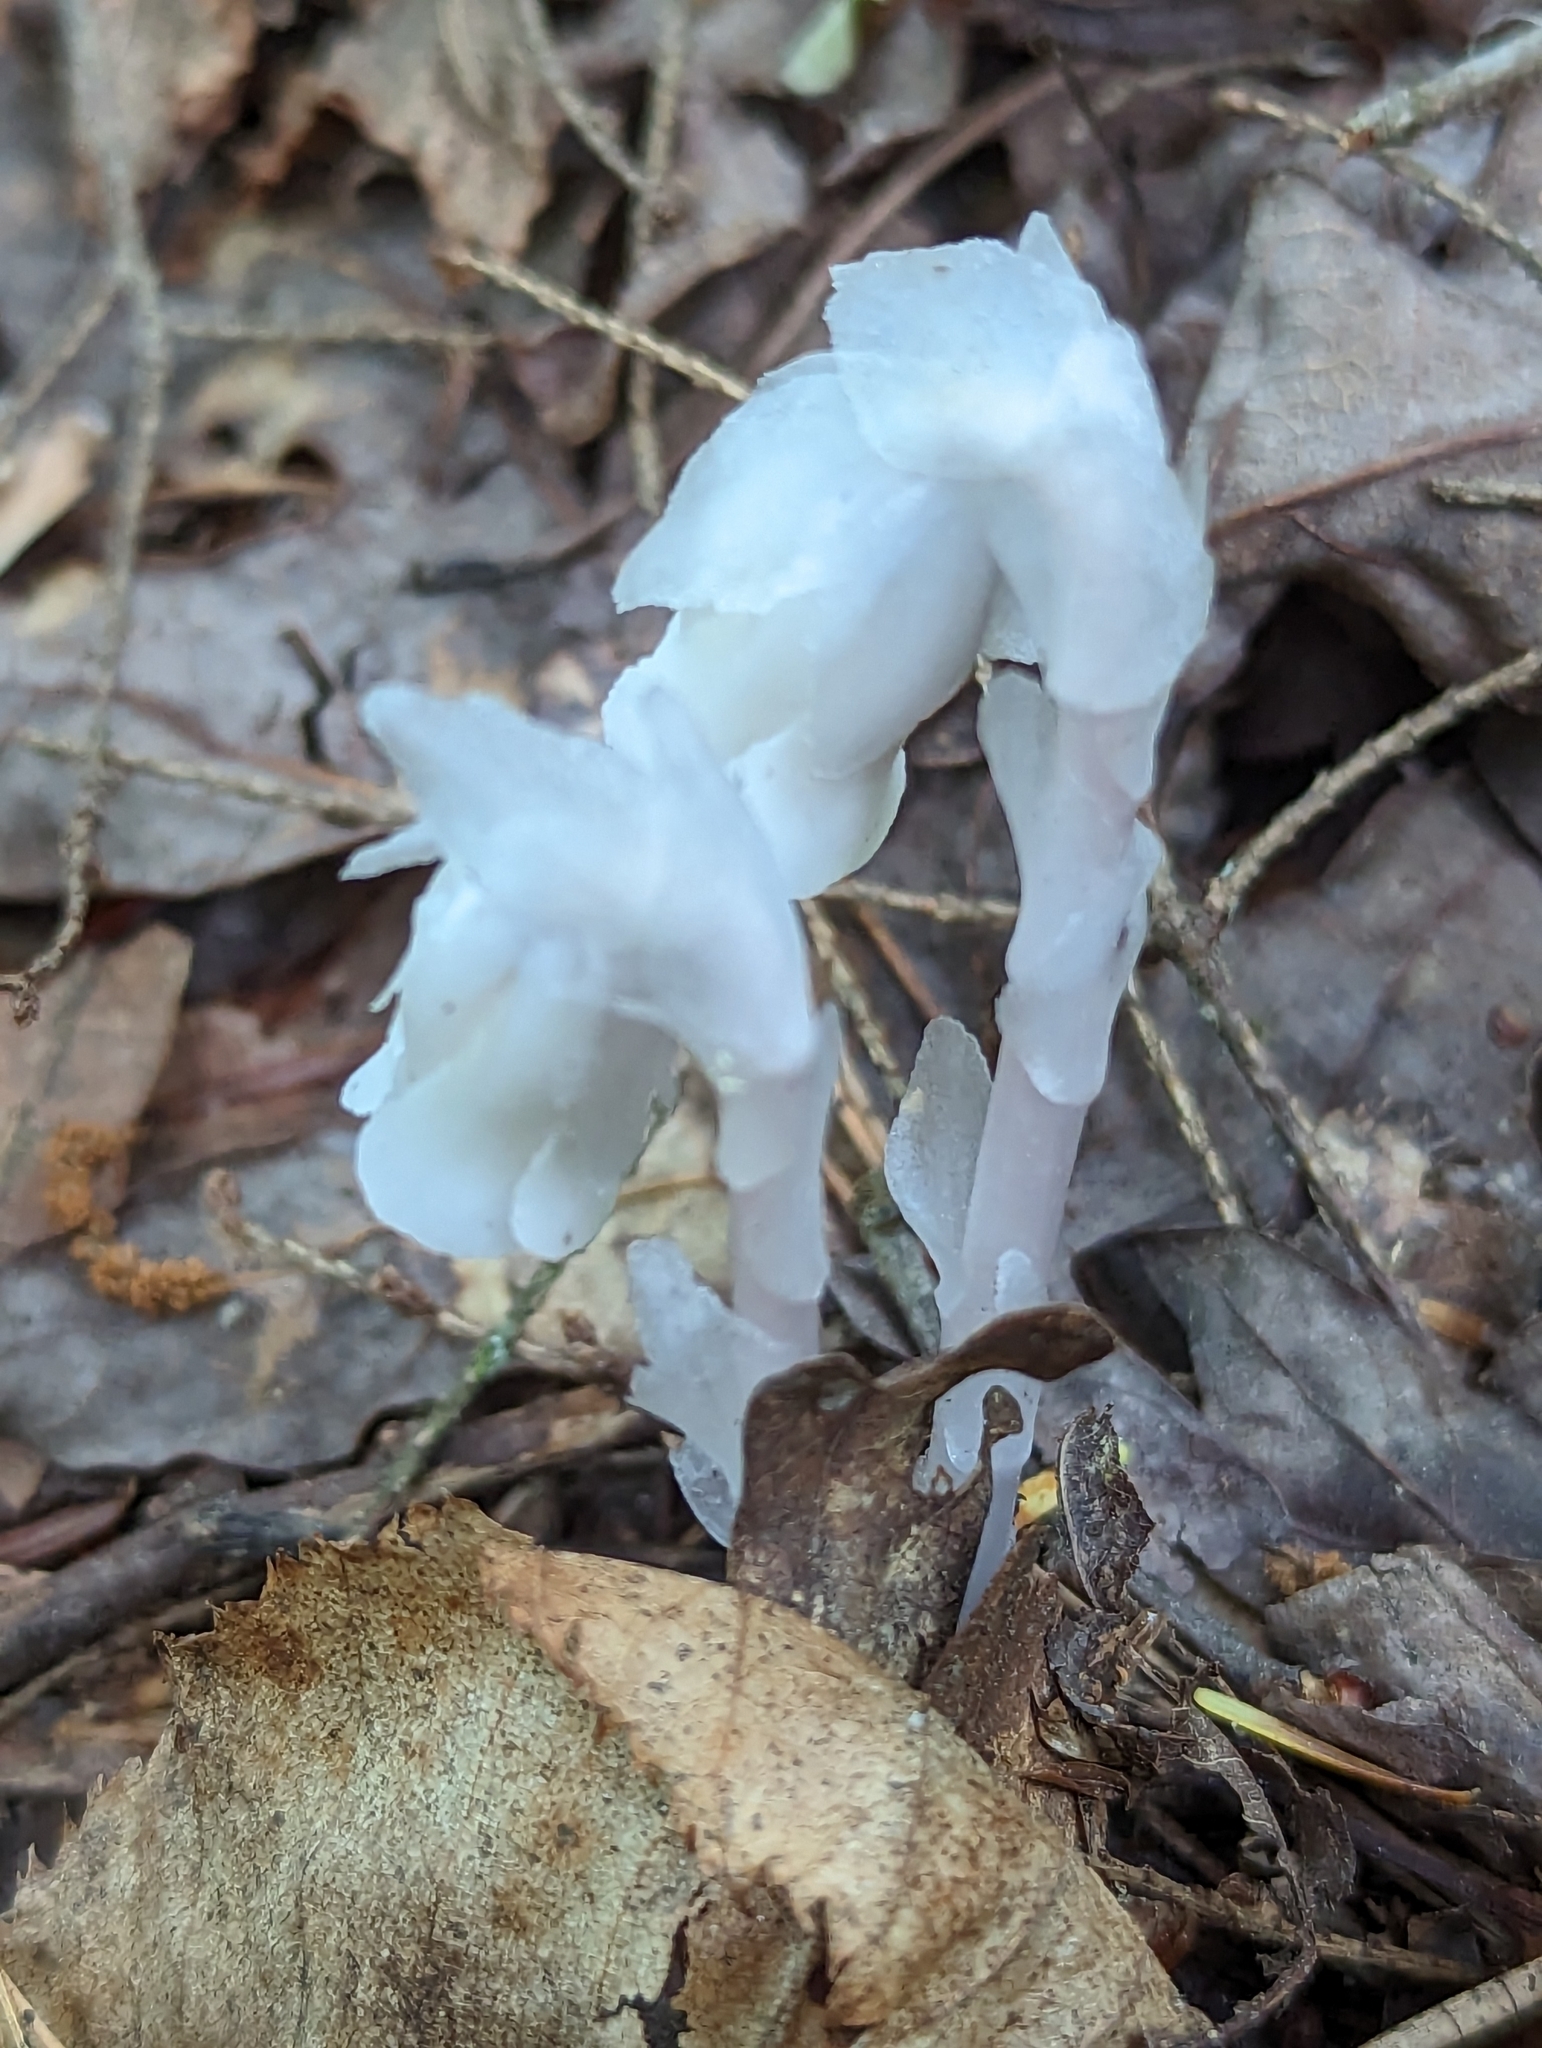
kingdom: Plantae
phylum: Tracheophyta
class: Magnoliopsida
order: Ericales
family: Ericaceae
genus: Monotropa
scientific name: Monotropa uniflora
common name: Convulsion root
